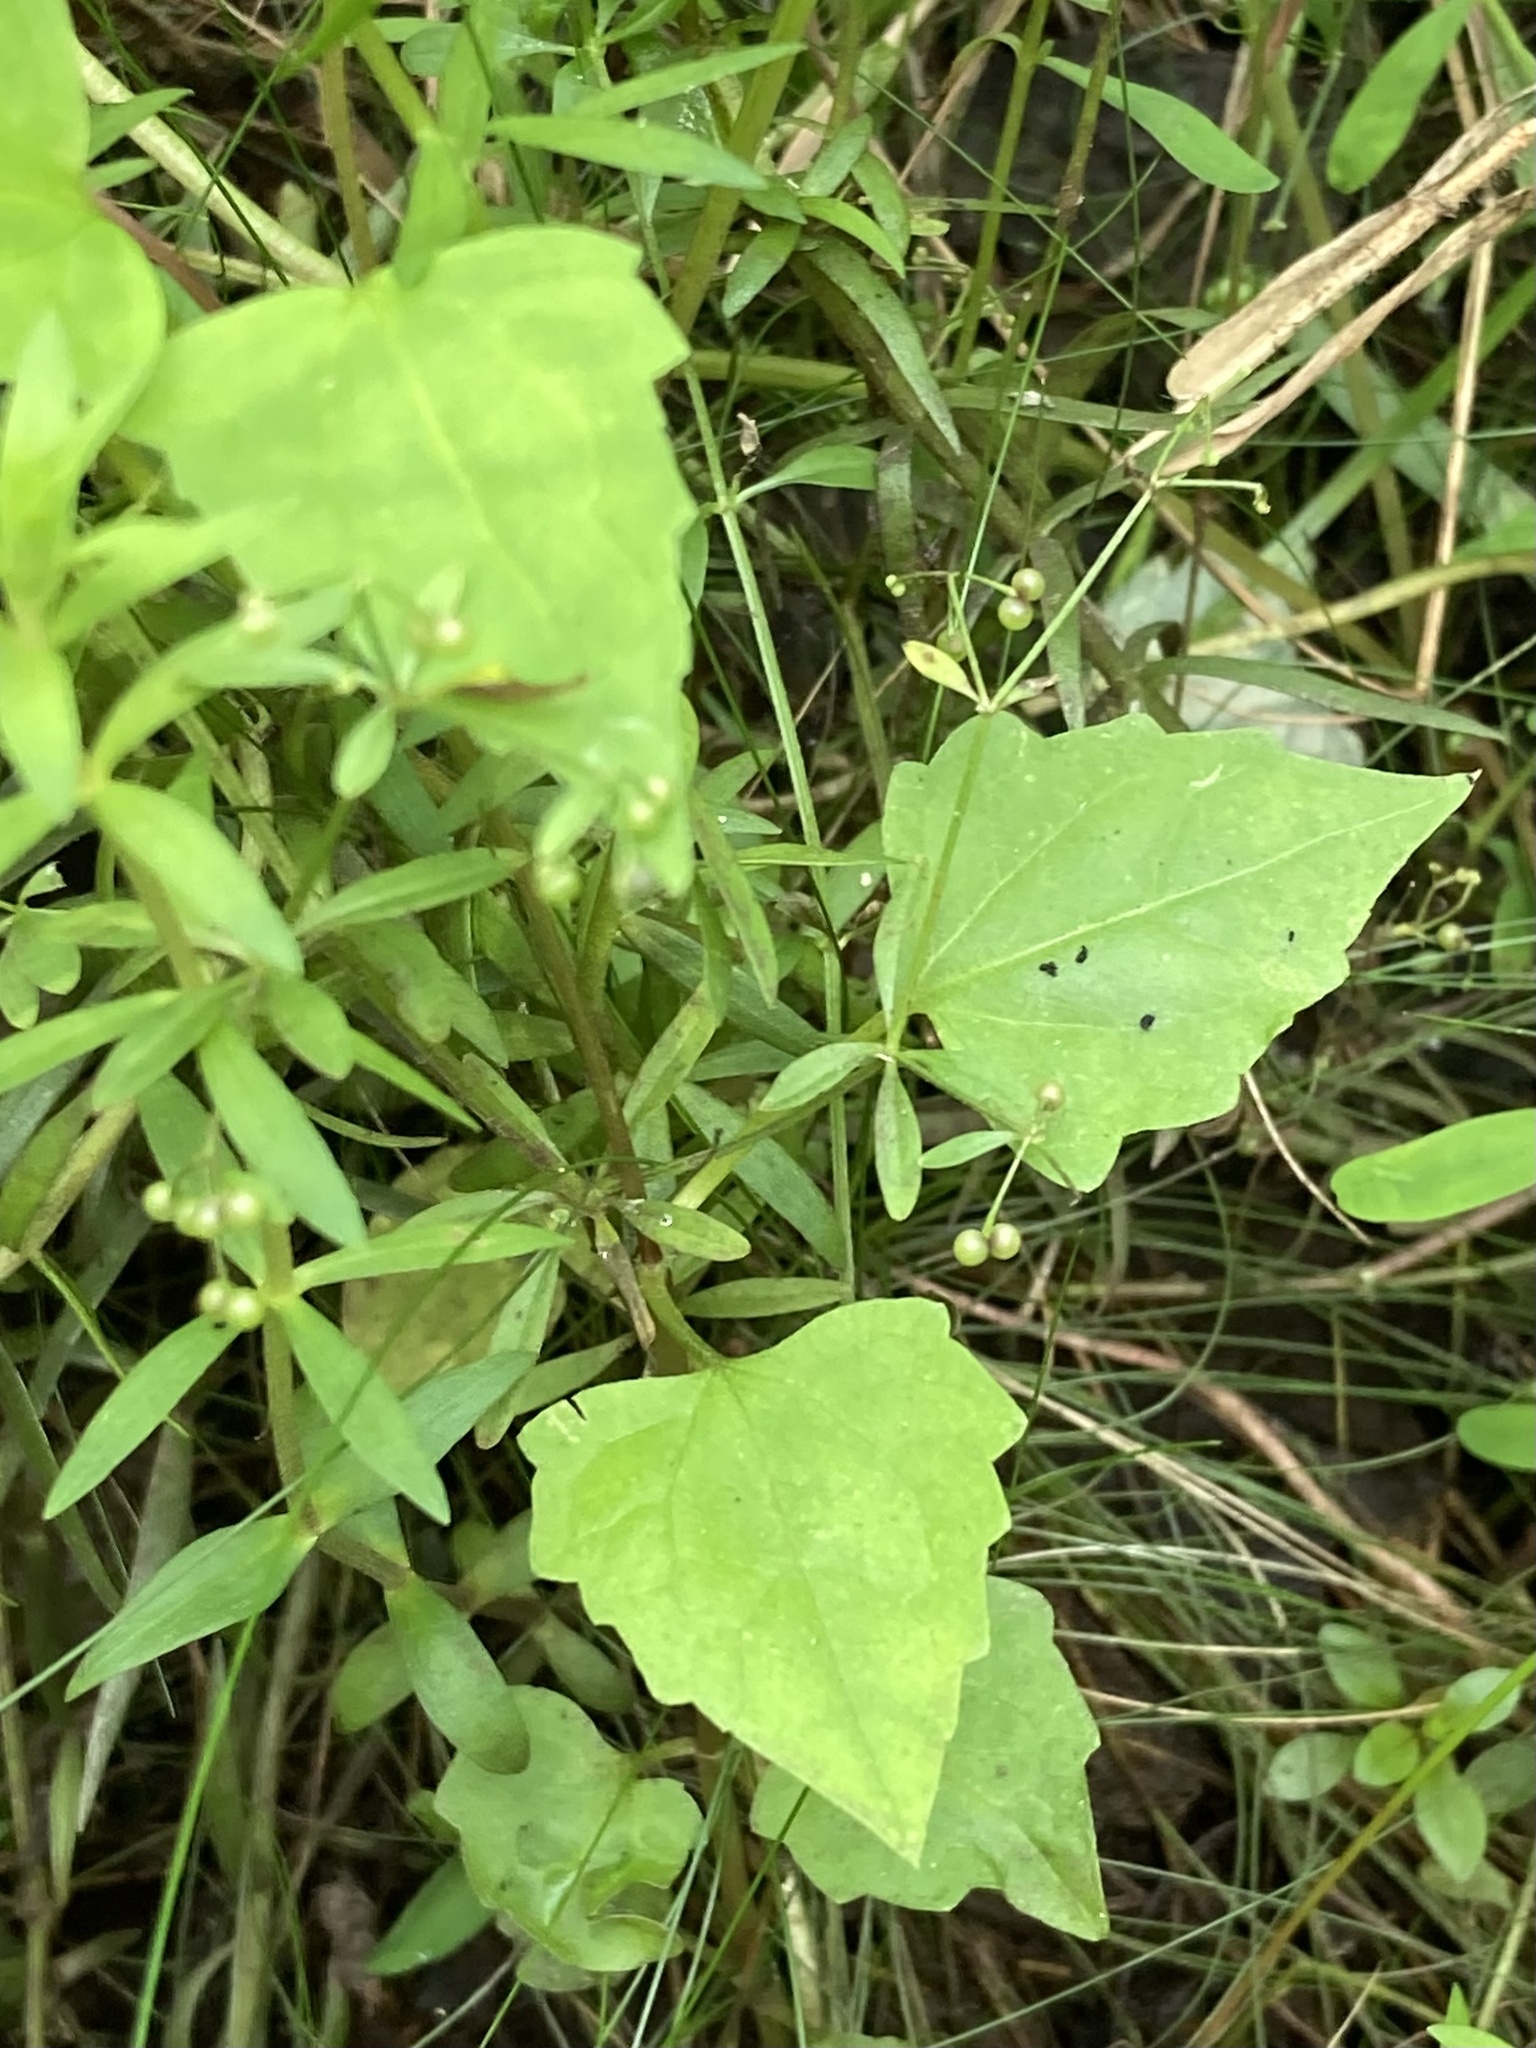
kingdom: Plantae
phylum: Tracheophyta
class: Magnoliopsida
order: Asterales
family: Asteraceae
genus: Mikania
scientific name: Mikania scandens
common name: Climbing hempvine
